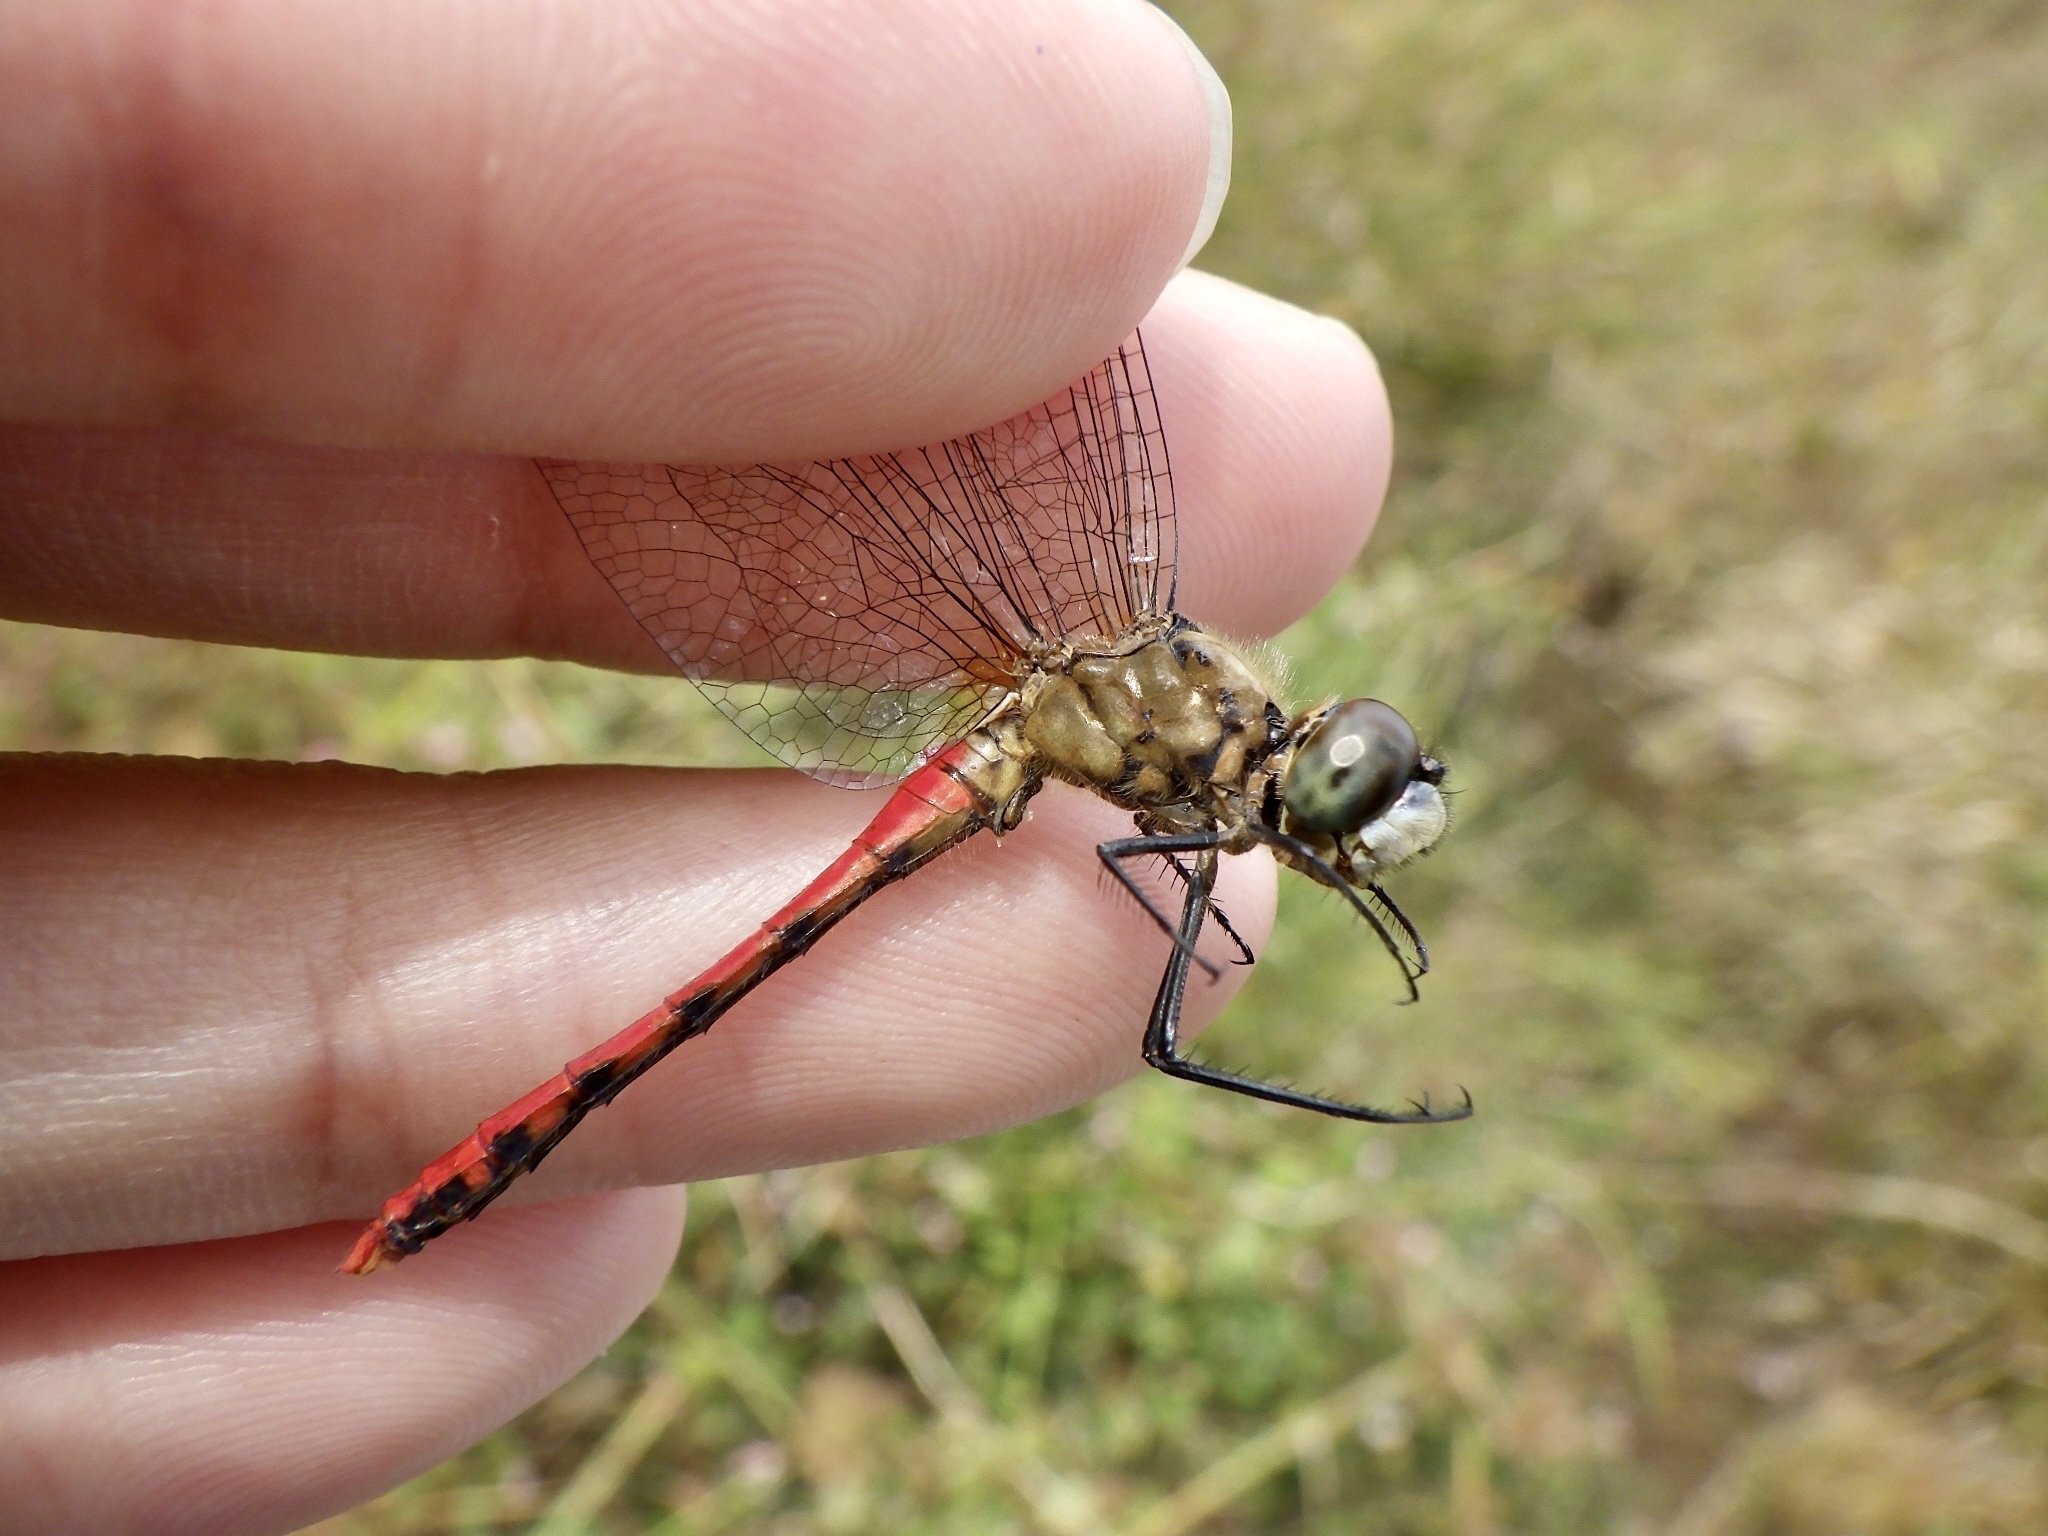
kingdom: Animalia
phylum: Arthropoda
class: Insecta
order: Odonata
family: Libellulidae
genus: Sympetrum
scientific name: Sympetrum parvulum
